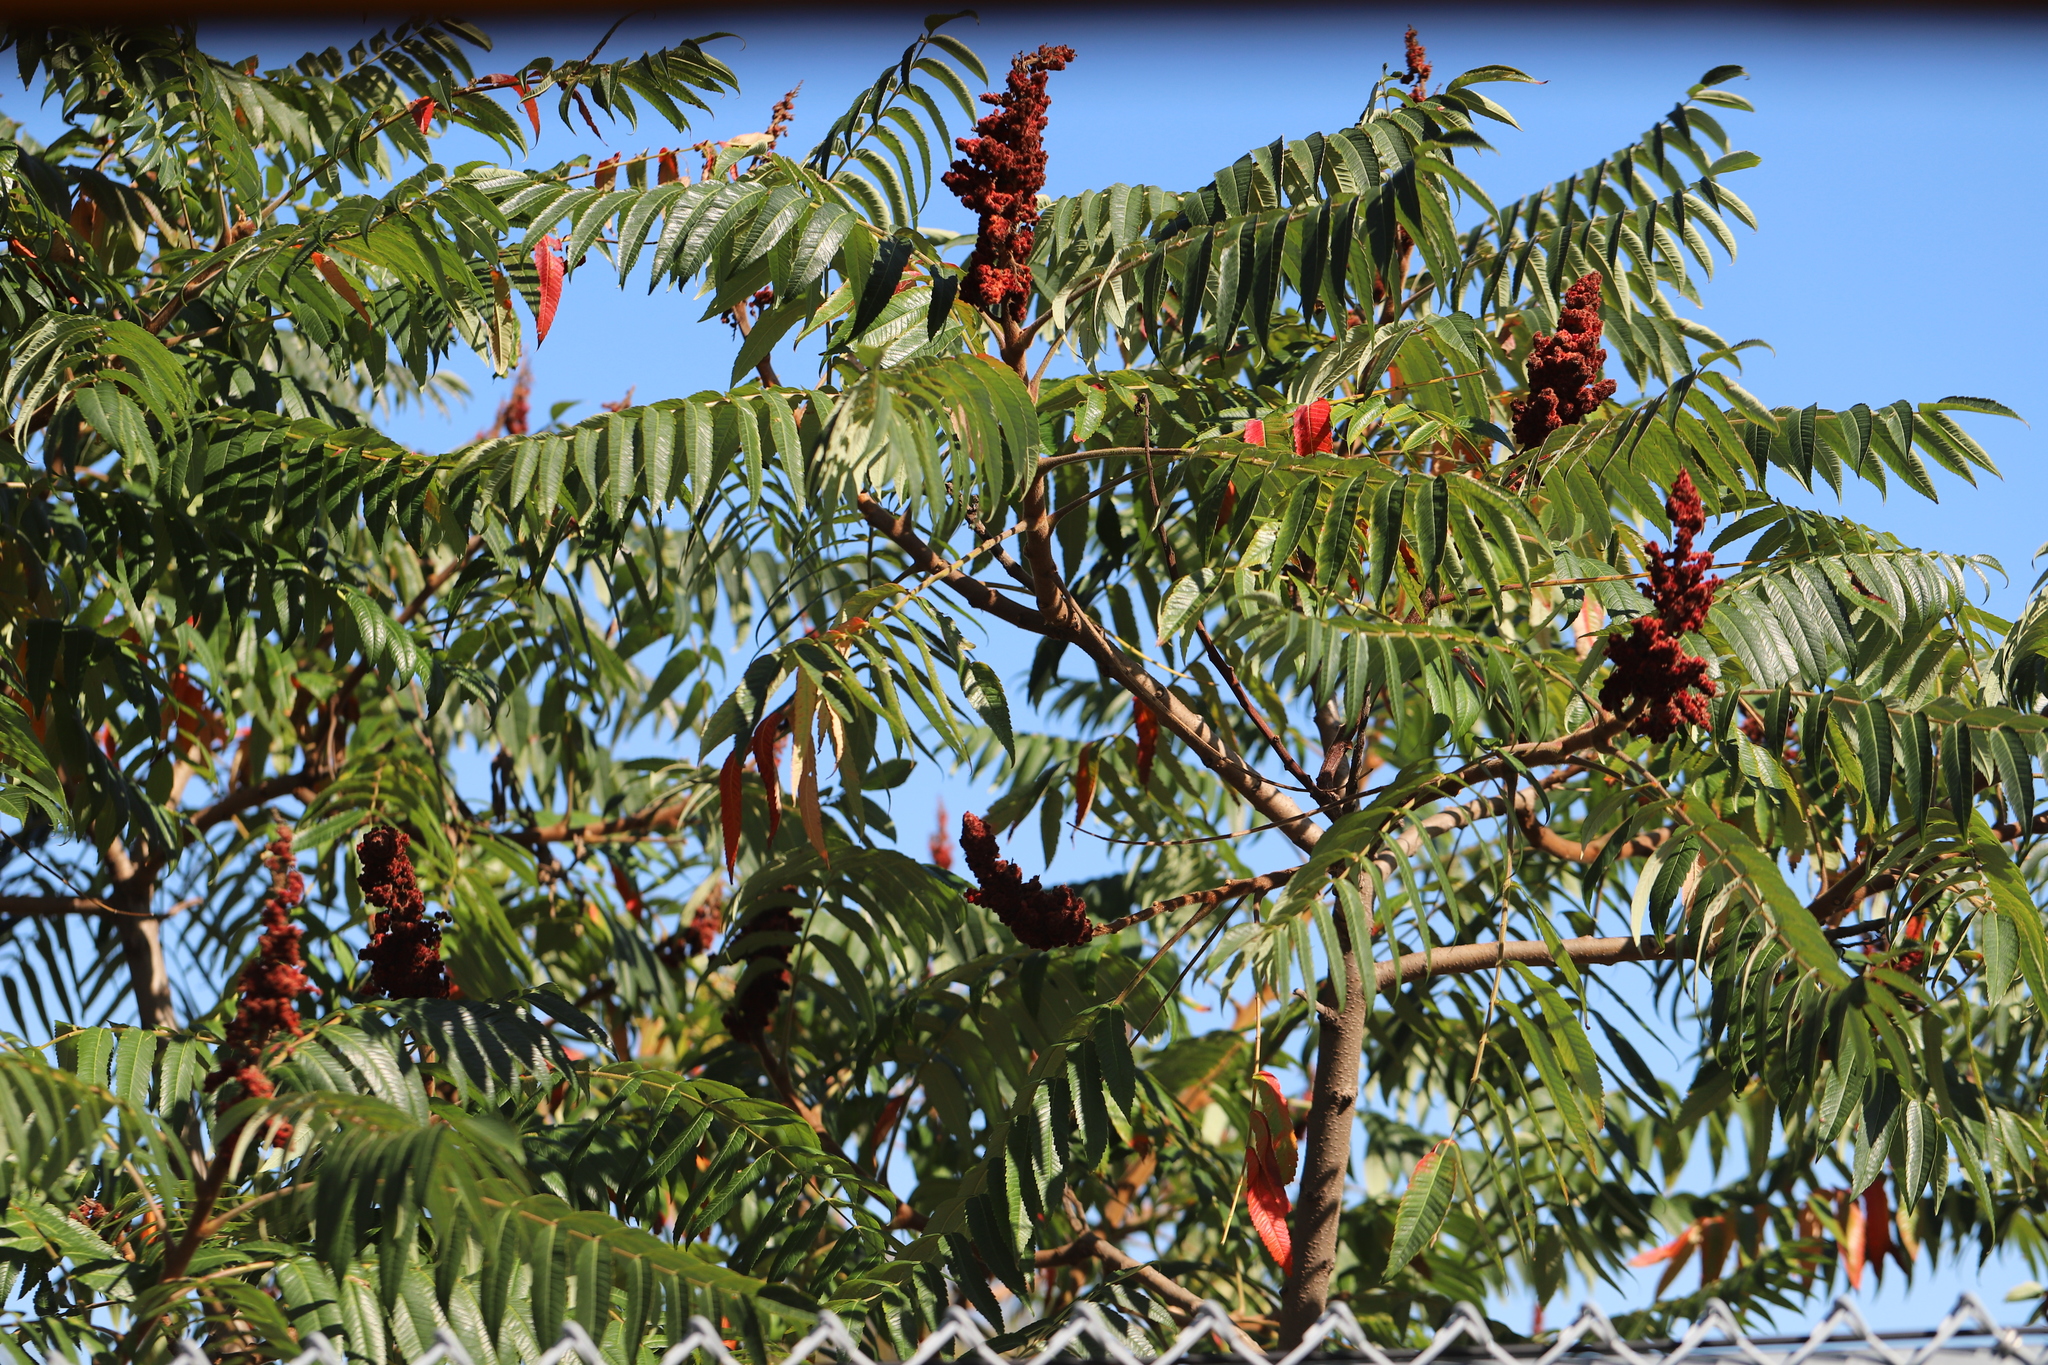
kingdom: Plantae
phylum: Tracheophyta
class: Magnoliopsida
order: Sapindales
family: Anacardiaceae
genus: Rhus
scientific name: Rhus typhina
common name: Staghorn sumac
